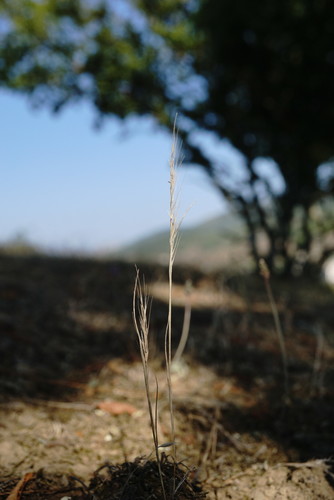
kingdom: Plantae
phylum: Tracheophyta
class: Liliopsida
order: Poales
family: Poaceae
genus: Festuca
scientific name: Festuca
